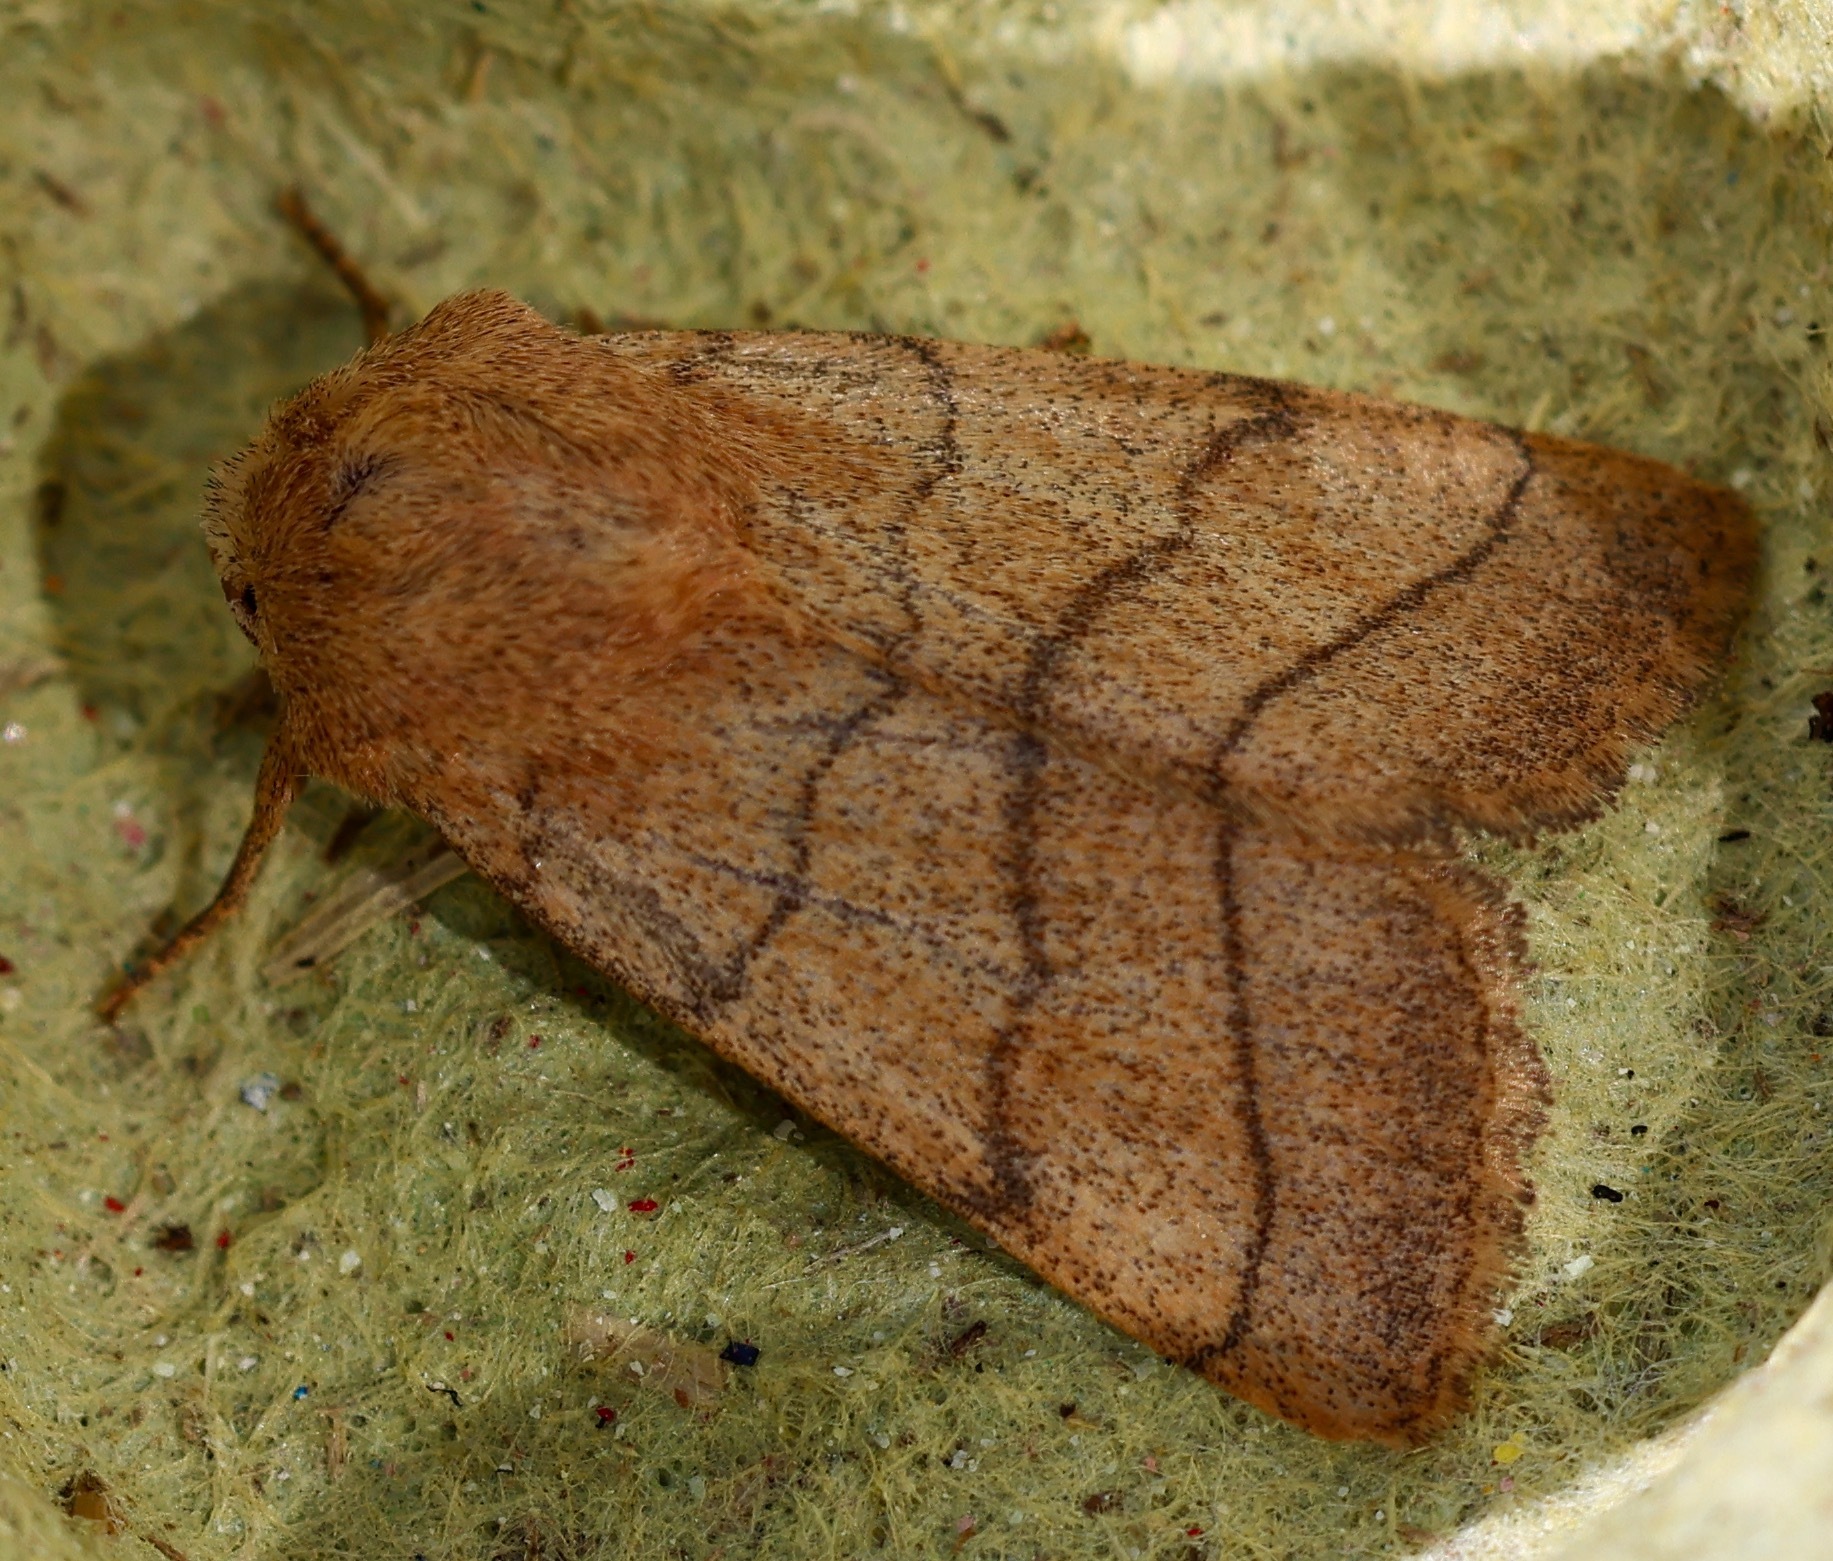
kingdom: Animalia
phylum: Arthropoda
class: Insecta
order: Lepidoptera
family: Noctuidae
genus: Charanyca
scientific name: Charanyca trigrammica
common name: Treble lines
